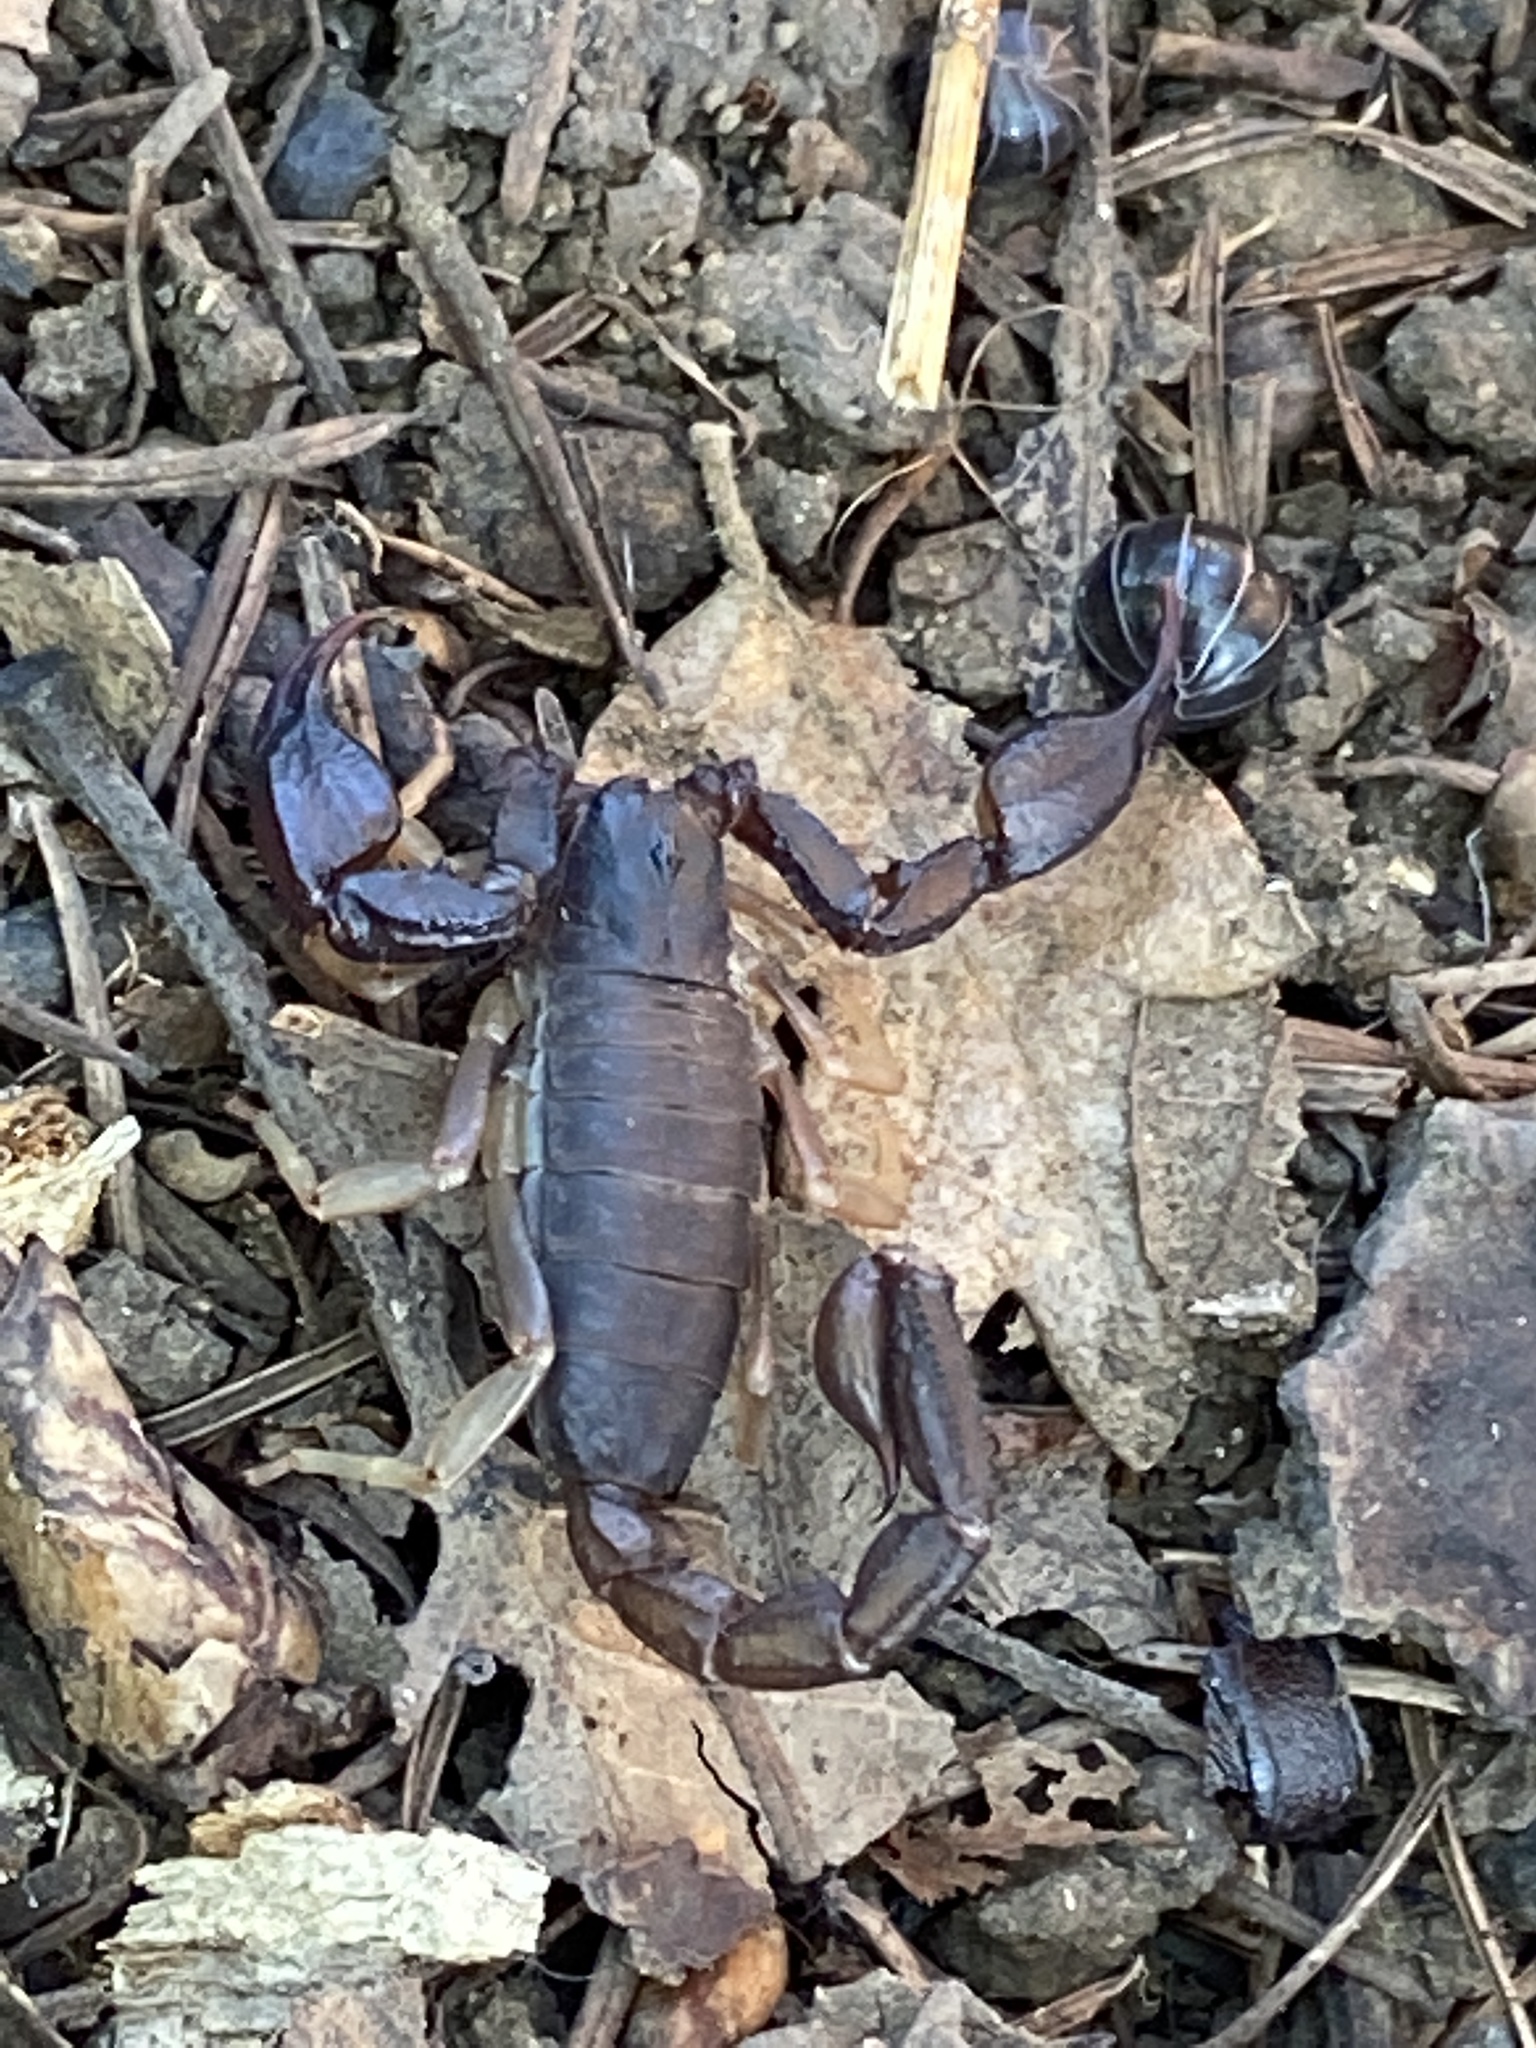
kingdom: Animalia
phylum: Arthropoda
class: Arachnida
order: Scorpiones
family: Chactidae
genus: Uroctonus
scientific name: Uroctonus mordax
